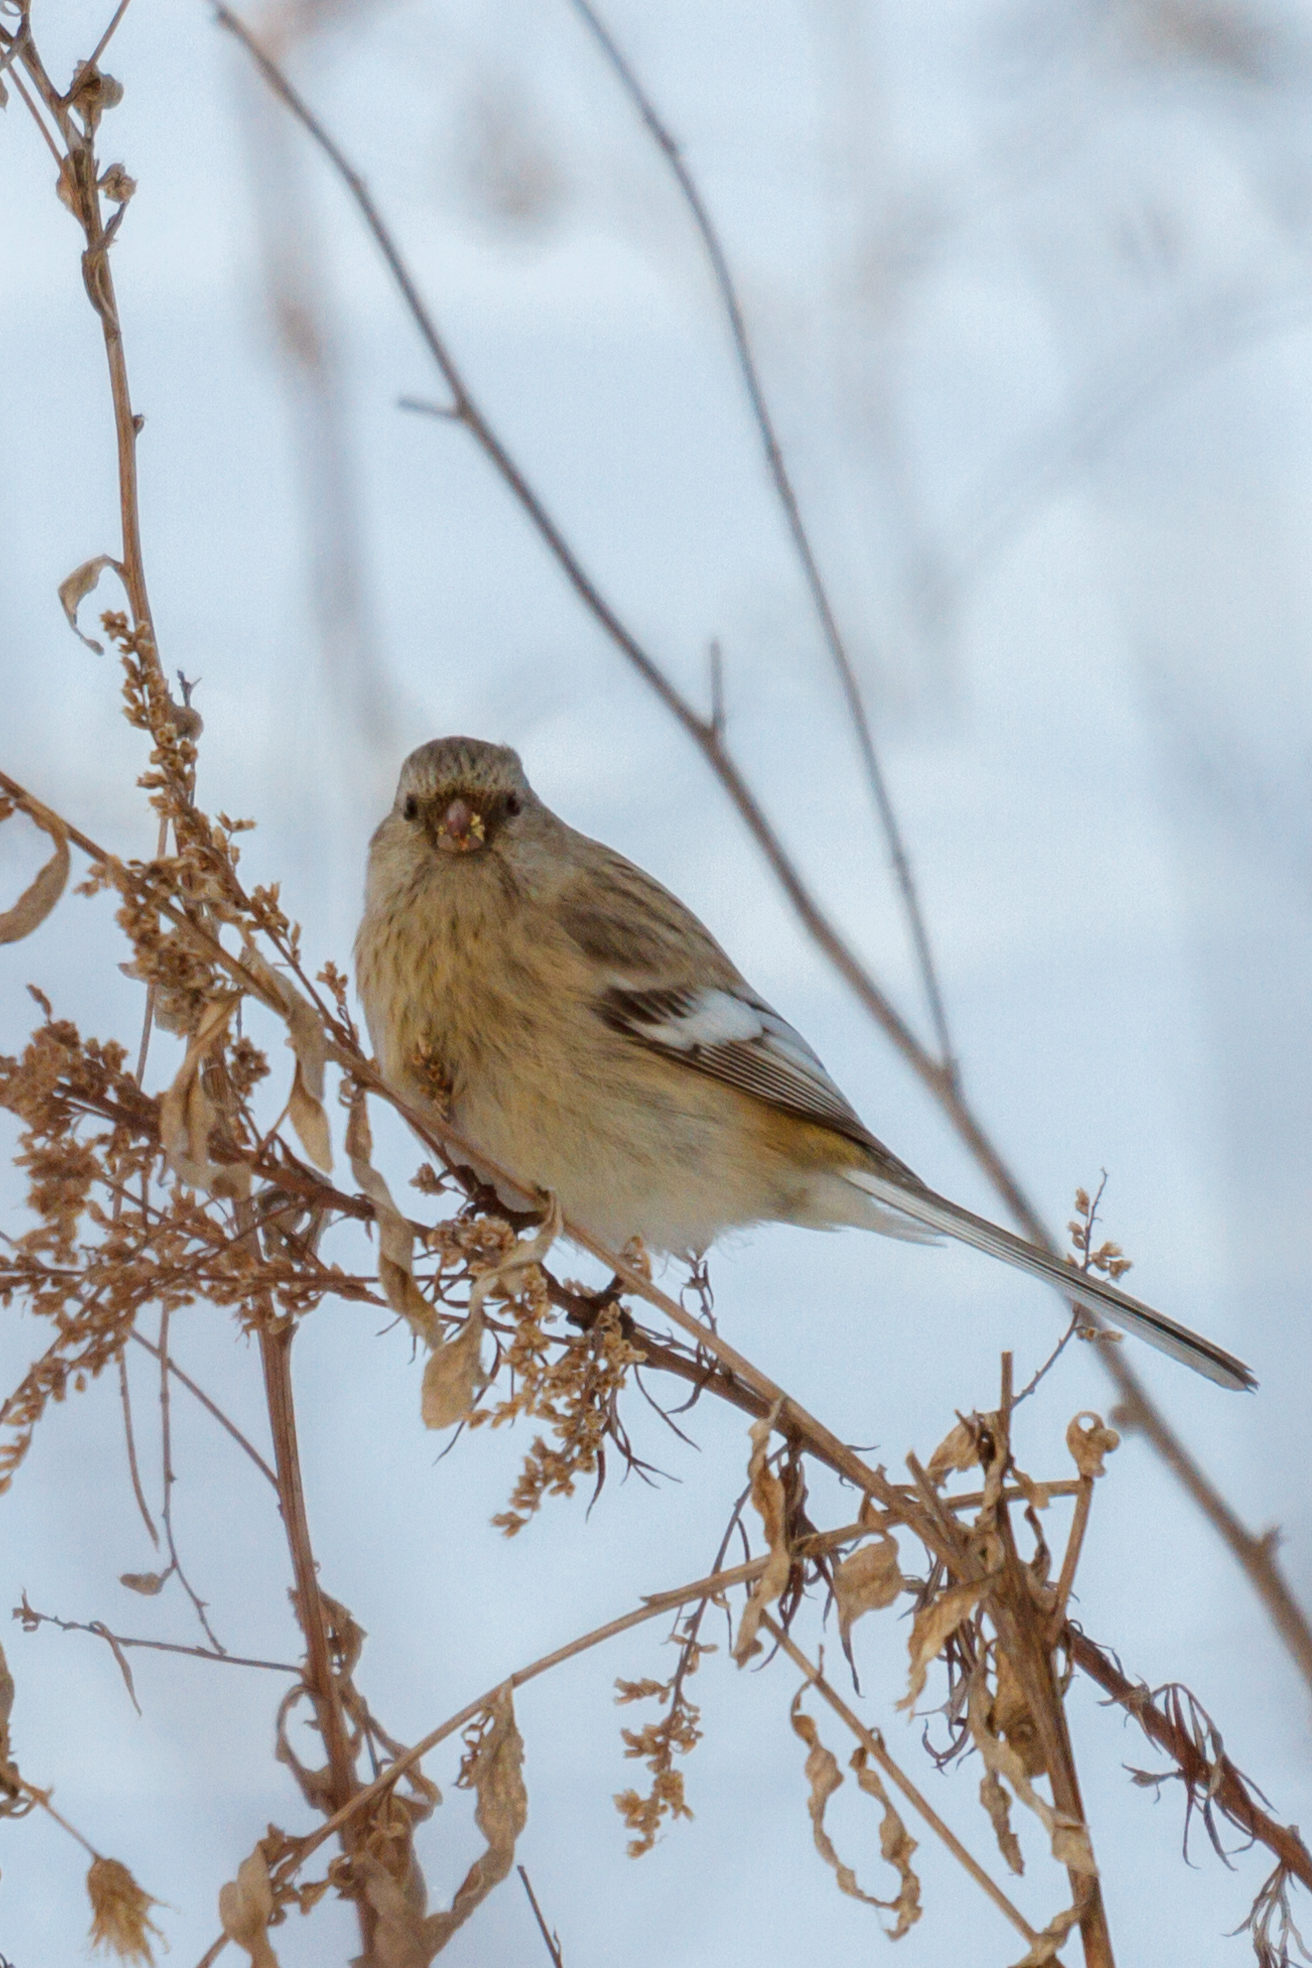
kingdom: Animalia
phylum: Chordata
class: Aves
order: Passeriformes
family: Fringillidae
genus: Carpodacus
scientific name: Carpodacus sibiricus
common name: Long-tailed rosefinch
